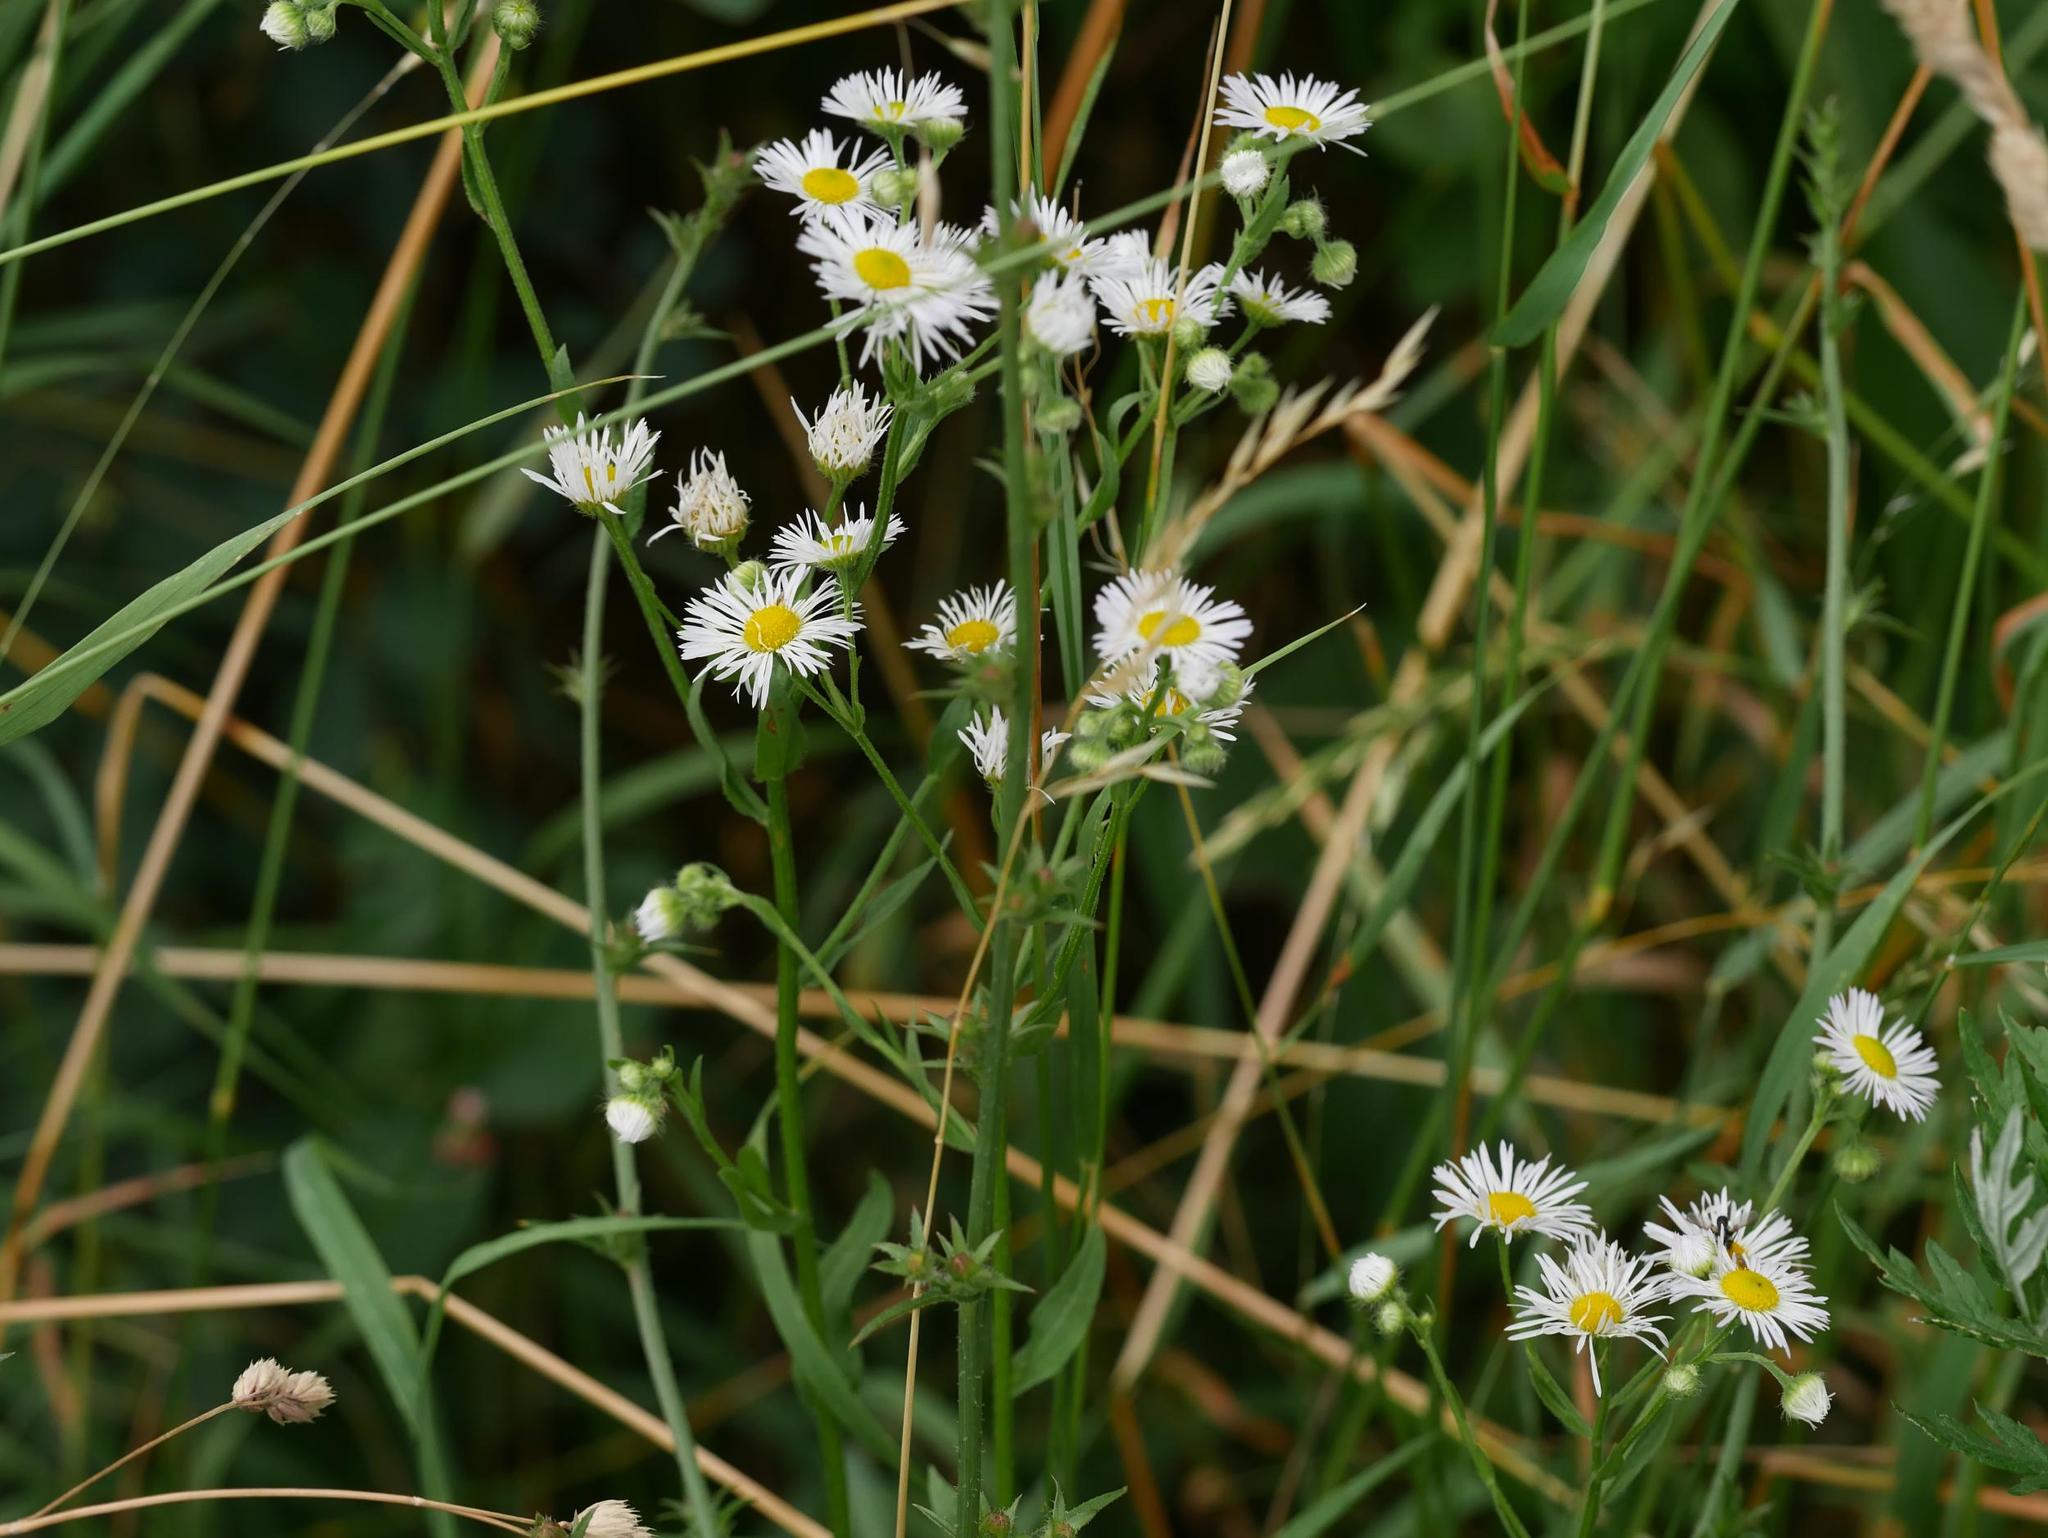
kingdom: Plantae
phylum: Tracheophyta
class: Magnoliopsida
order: Asterales
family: Asteraceae
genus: Erigeron
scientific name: Erigeron annuus
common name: Tall fleabane
